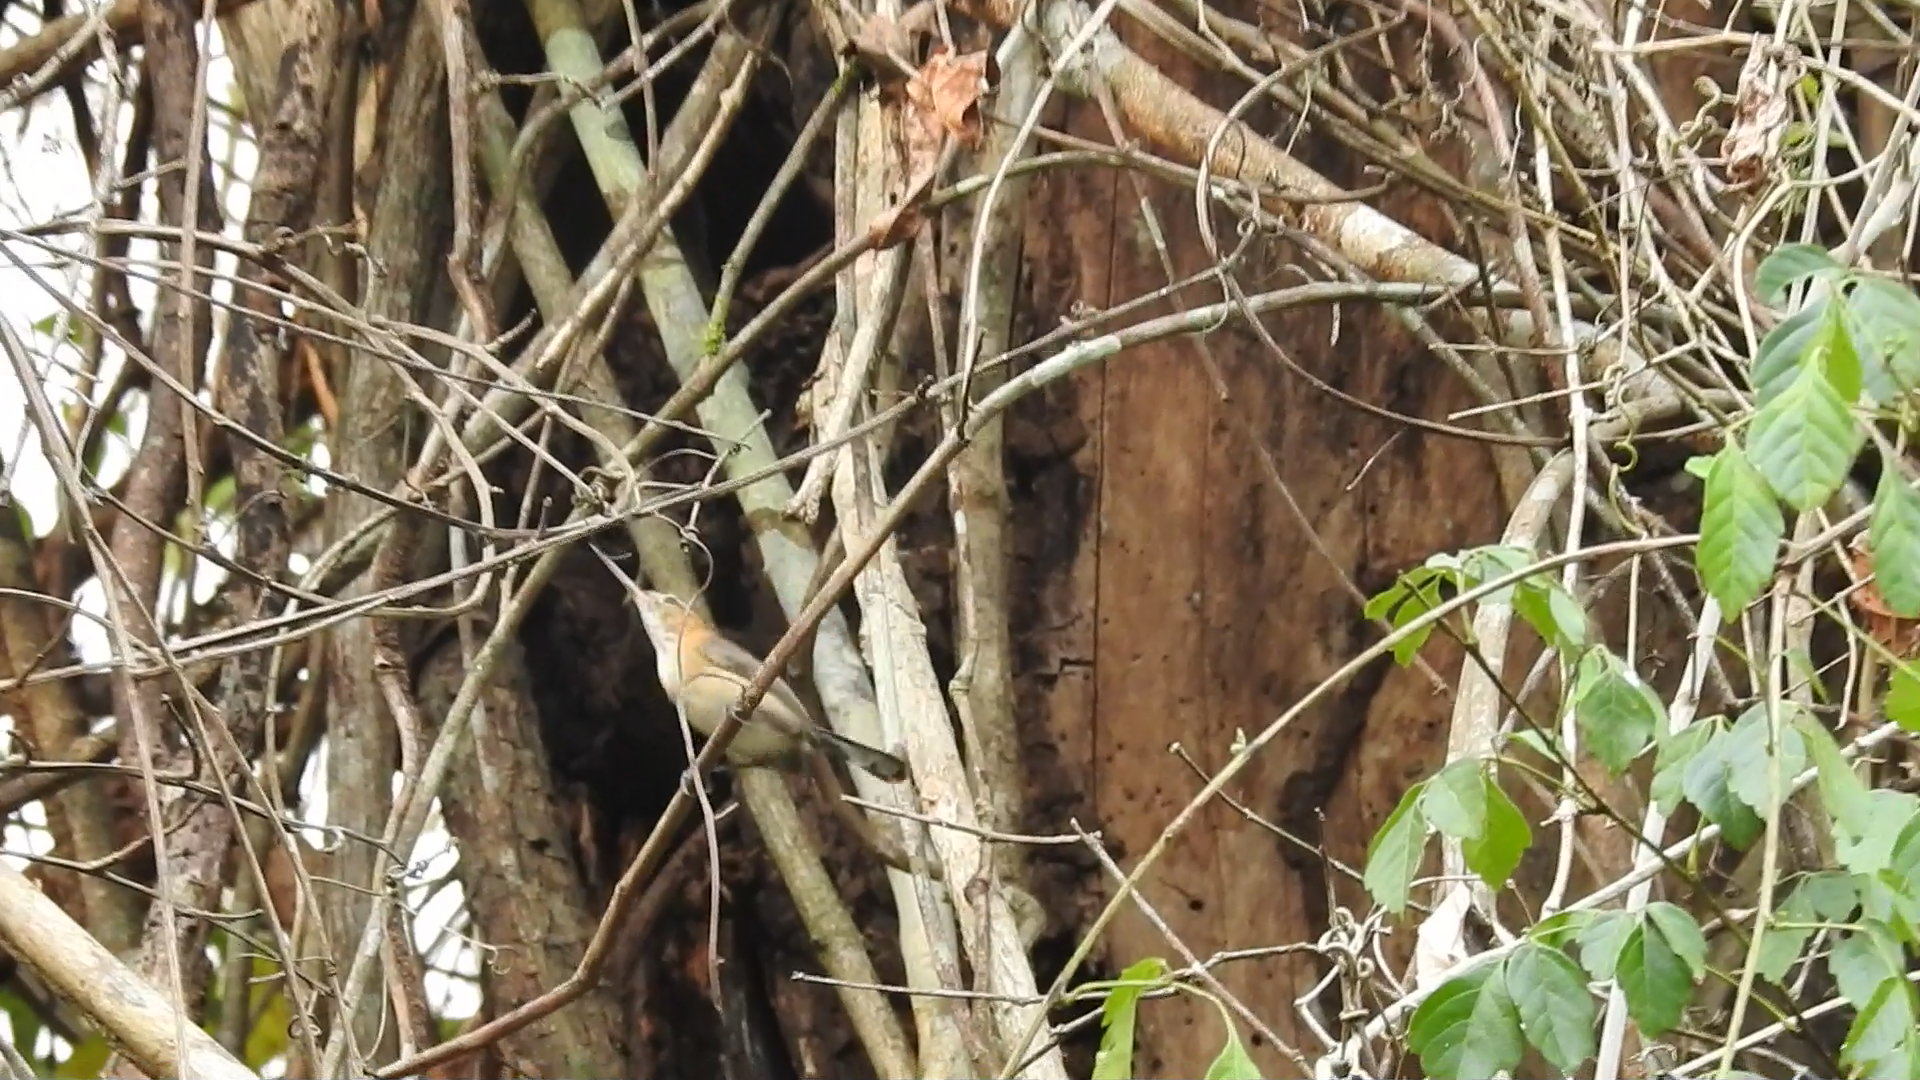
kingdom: Animalia
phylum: Chordata
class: Aves
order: Passeriformes
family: Polioptilidae
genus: Ramphocaenus
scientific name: Ramphocaenus melanurus
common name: Long-billed gnatwren
